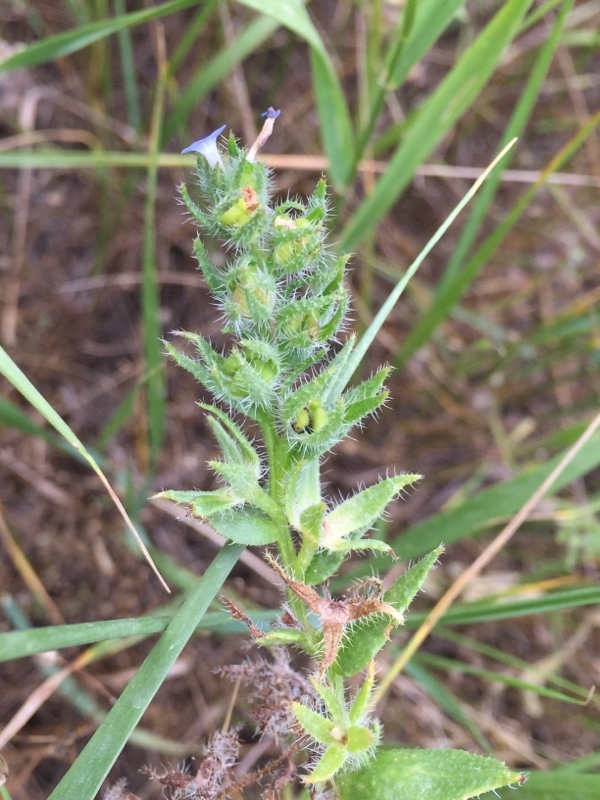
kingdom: Plantae
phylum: Tracheophyta
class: Magnoliopsida
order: Boraginales
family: Boraginaceae
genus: Lappula
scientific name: Lappula squarrosa
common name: European stickseed
